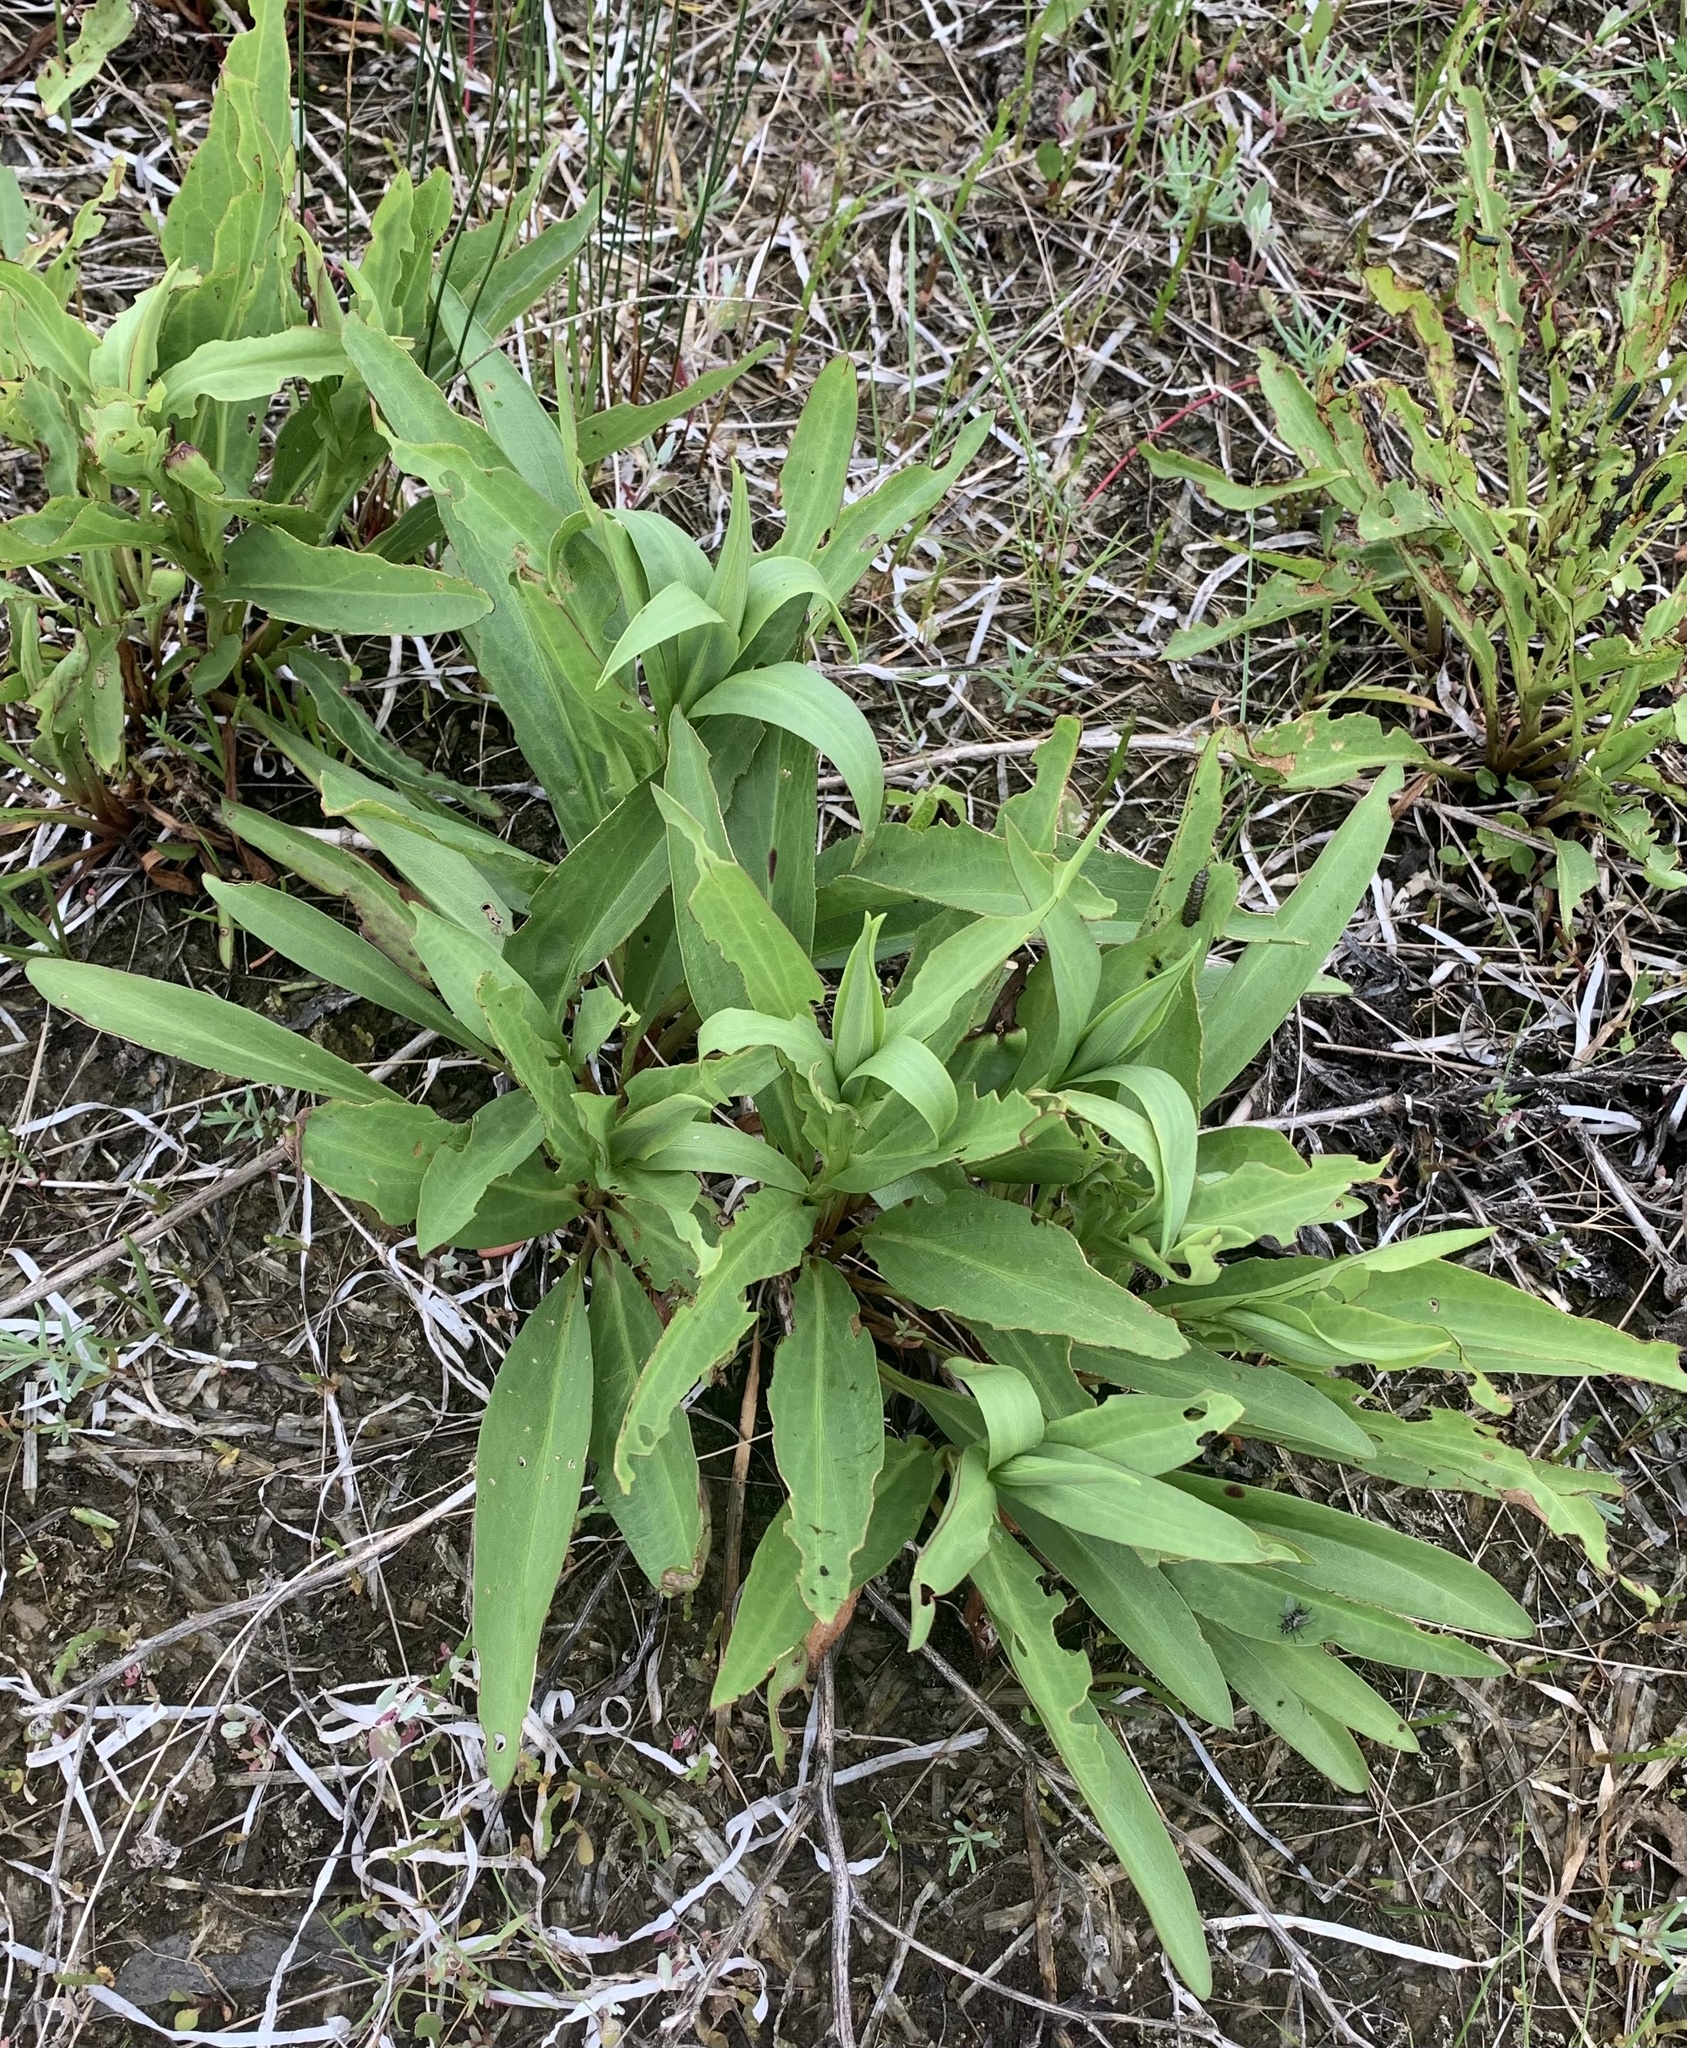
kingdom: Plantae
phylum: Tracheophyta
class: Magnoliopsida
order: Asterales
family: Asteraceae
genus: Solidago
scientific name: Solidago sempervirens
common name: Salt-marsh goldenrod
